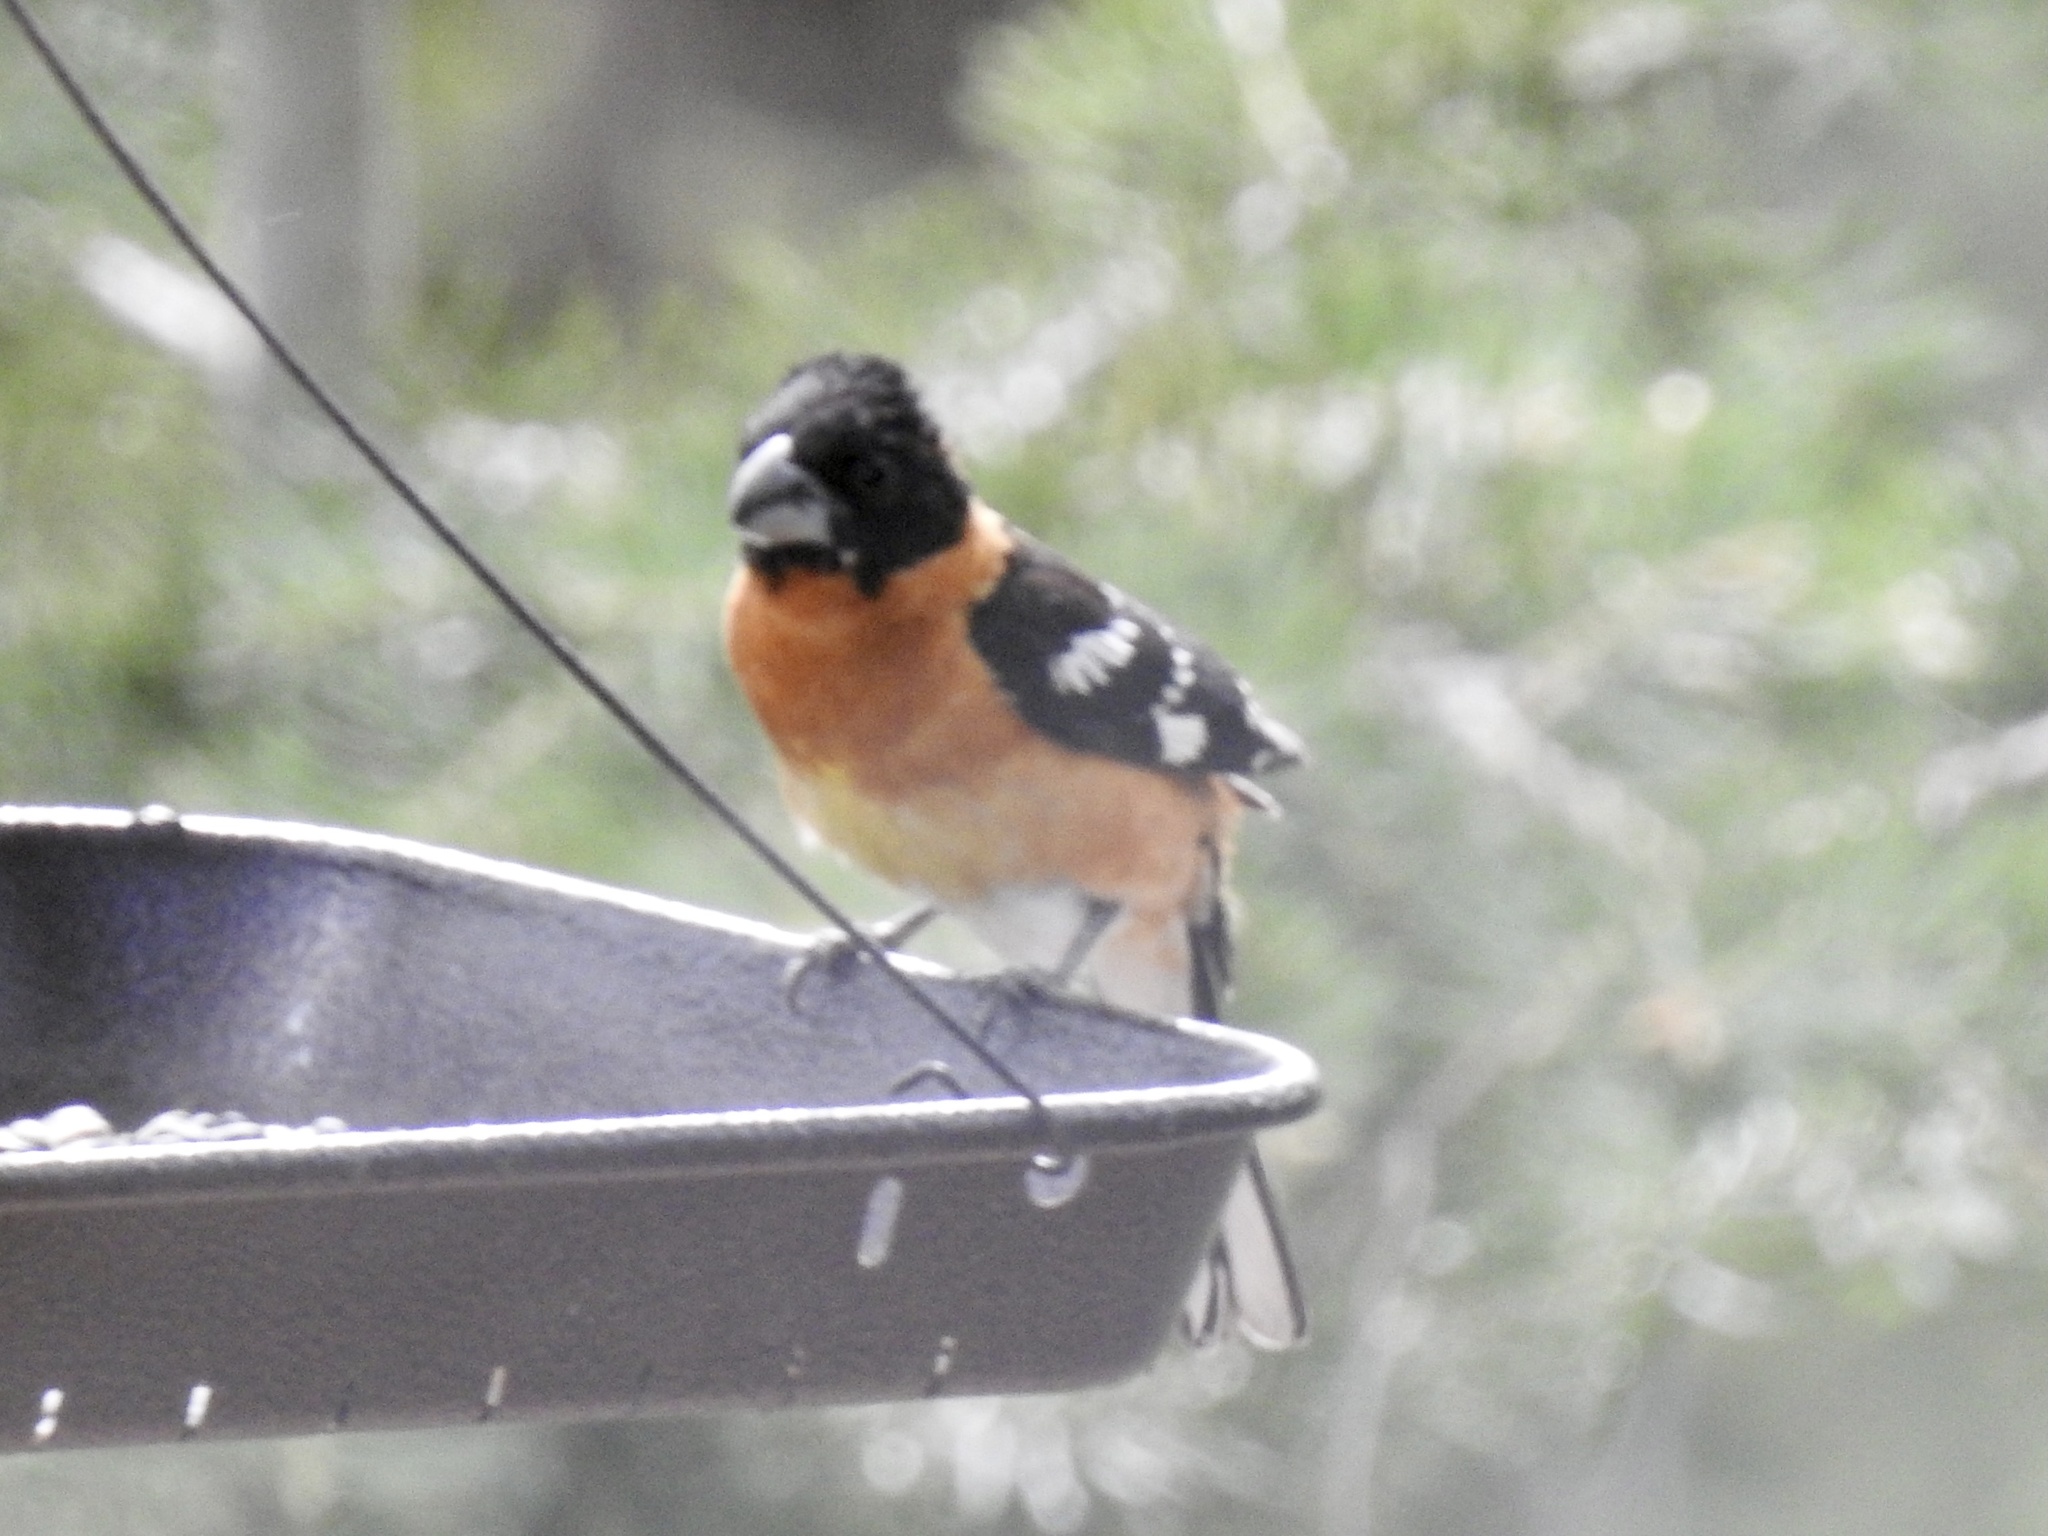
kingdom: Animalia
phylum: Chordata
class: Aves
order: Passeriformes
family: Cardinalidae
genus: Pheucticus
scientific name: Pheucticus melanocephalus
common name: Black-headed grosbeak
